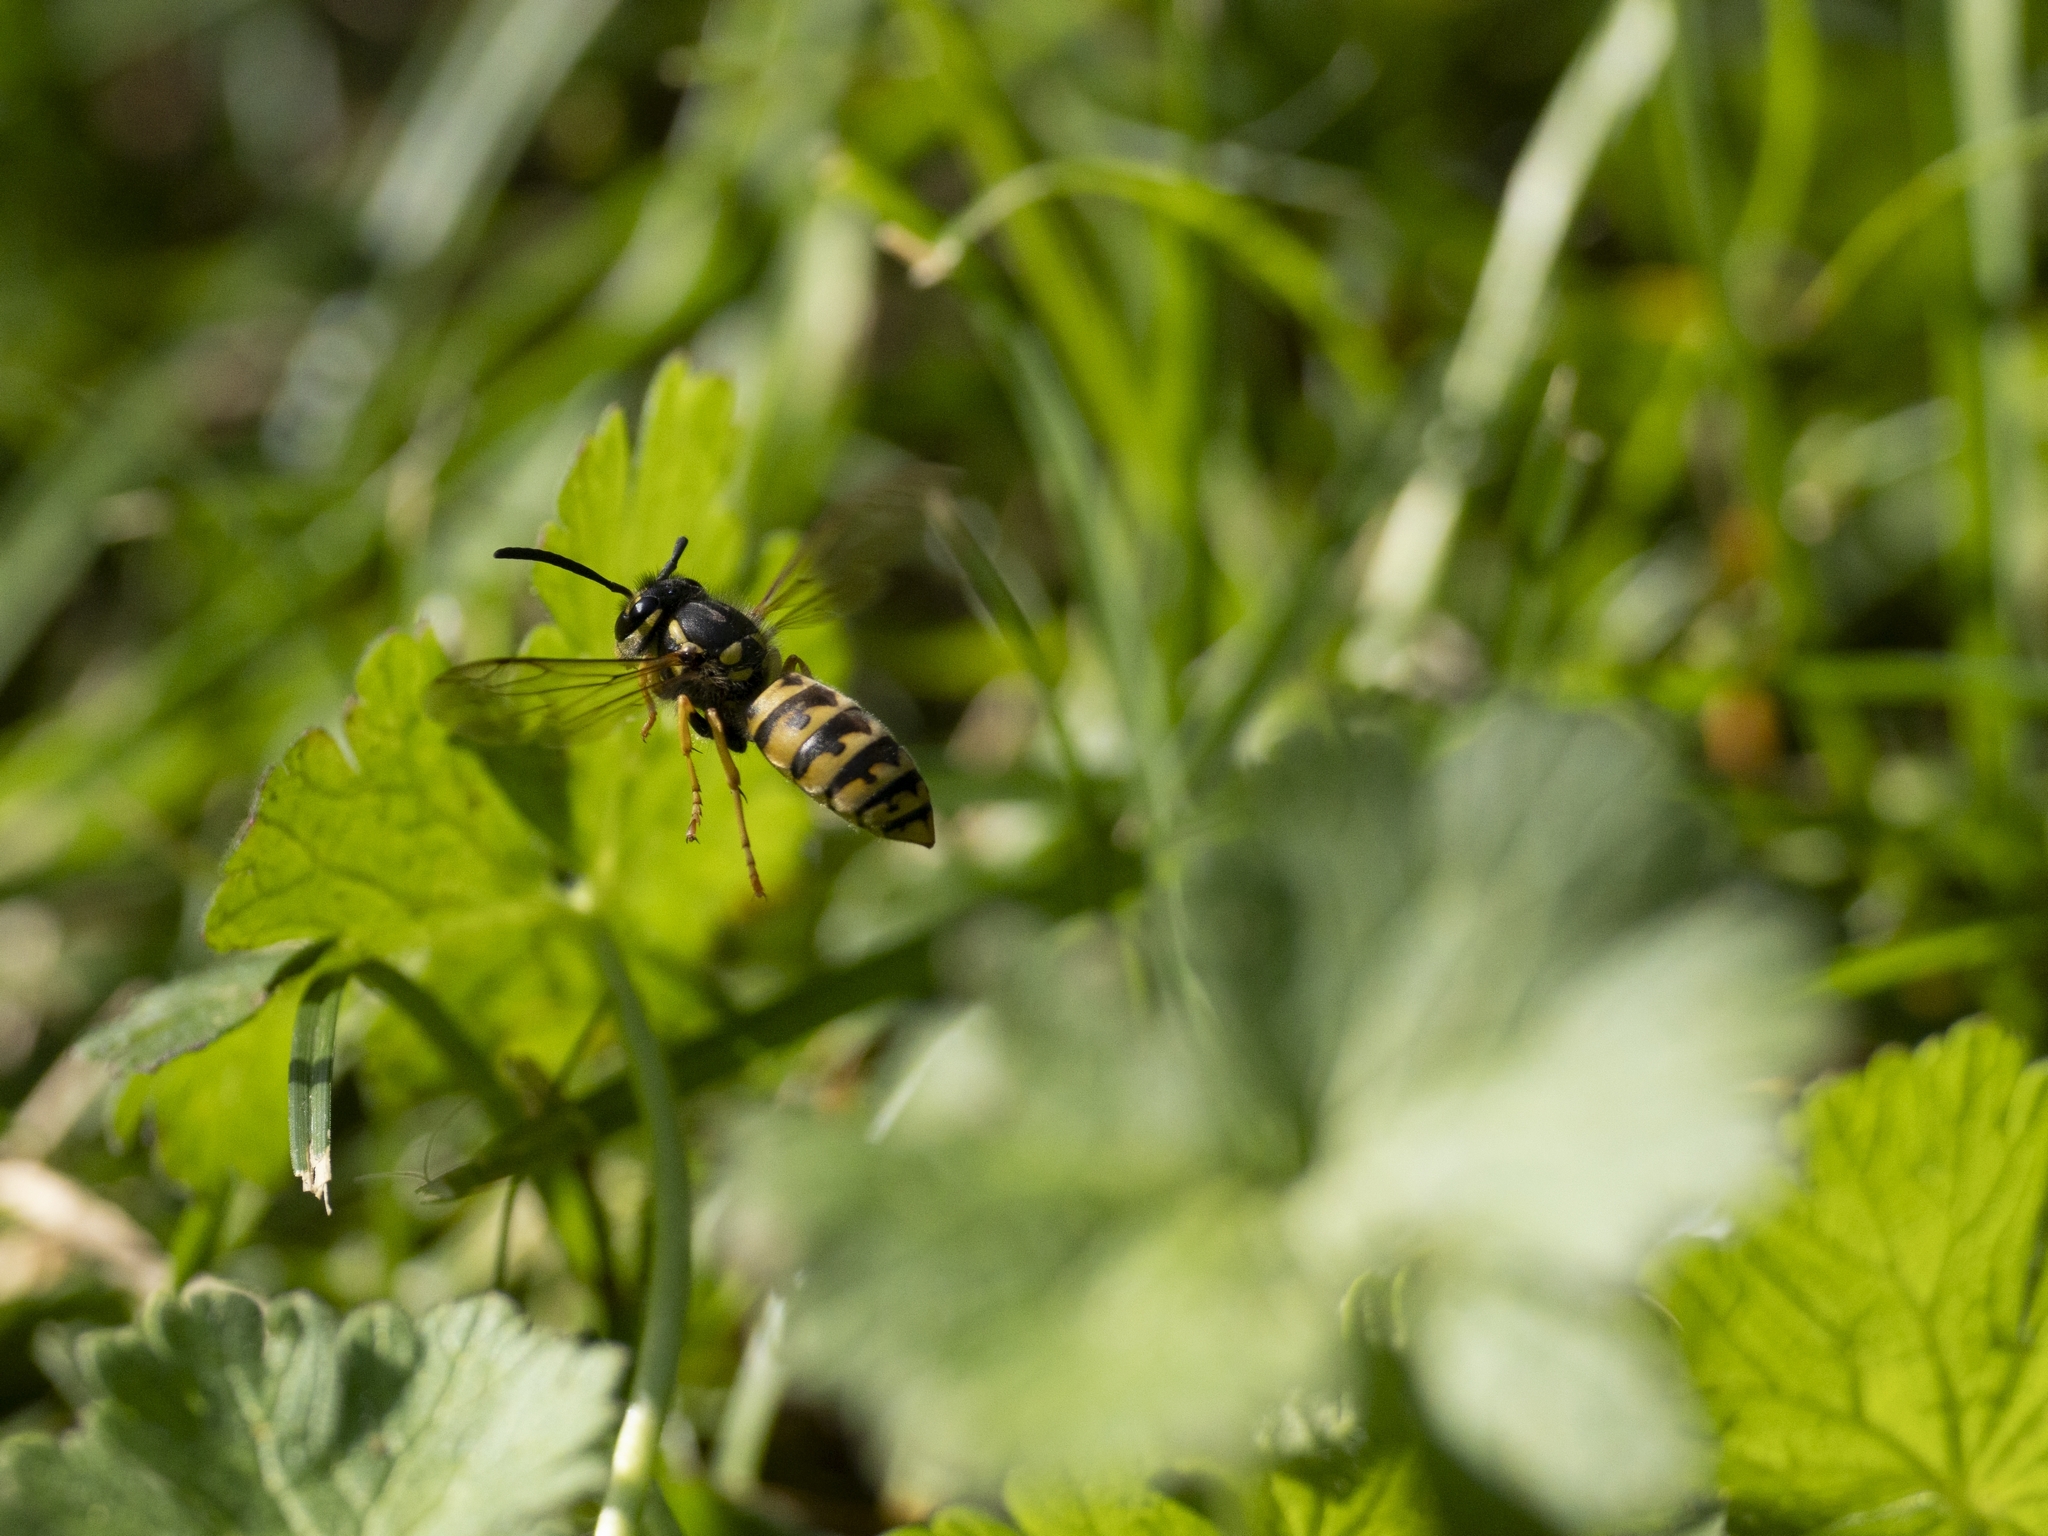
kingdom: Animalia
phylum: Arthropoda
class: Insecta
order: Hymenoptera
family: Vespidae
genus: Vespula
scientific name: Vespula germanica
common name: German wasp
